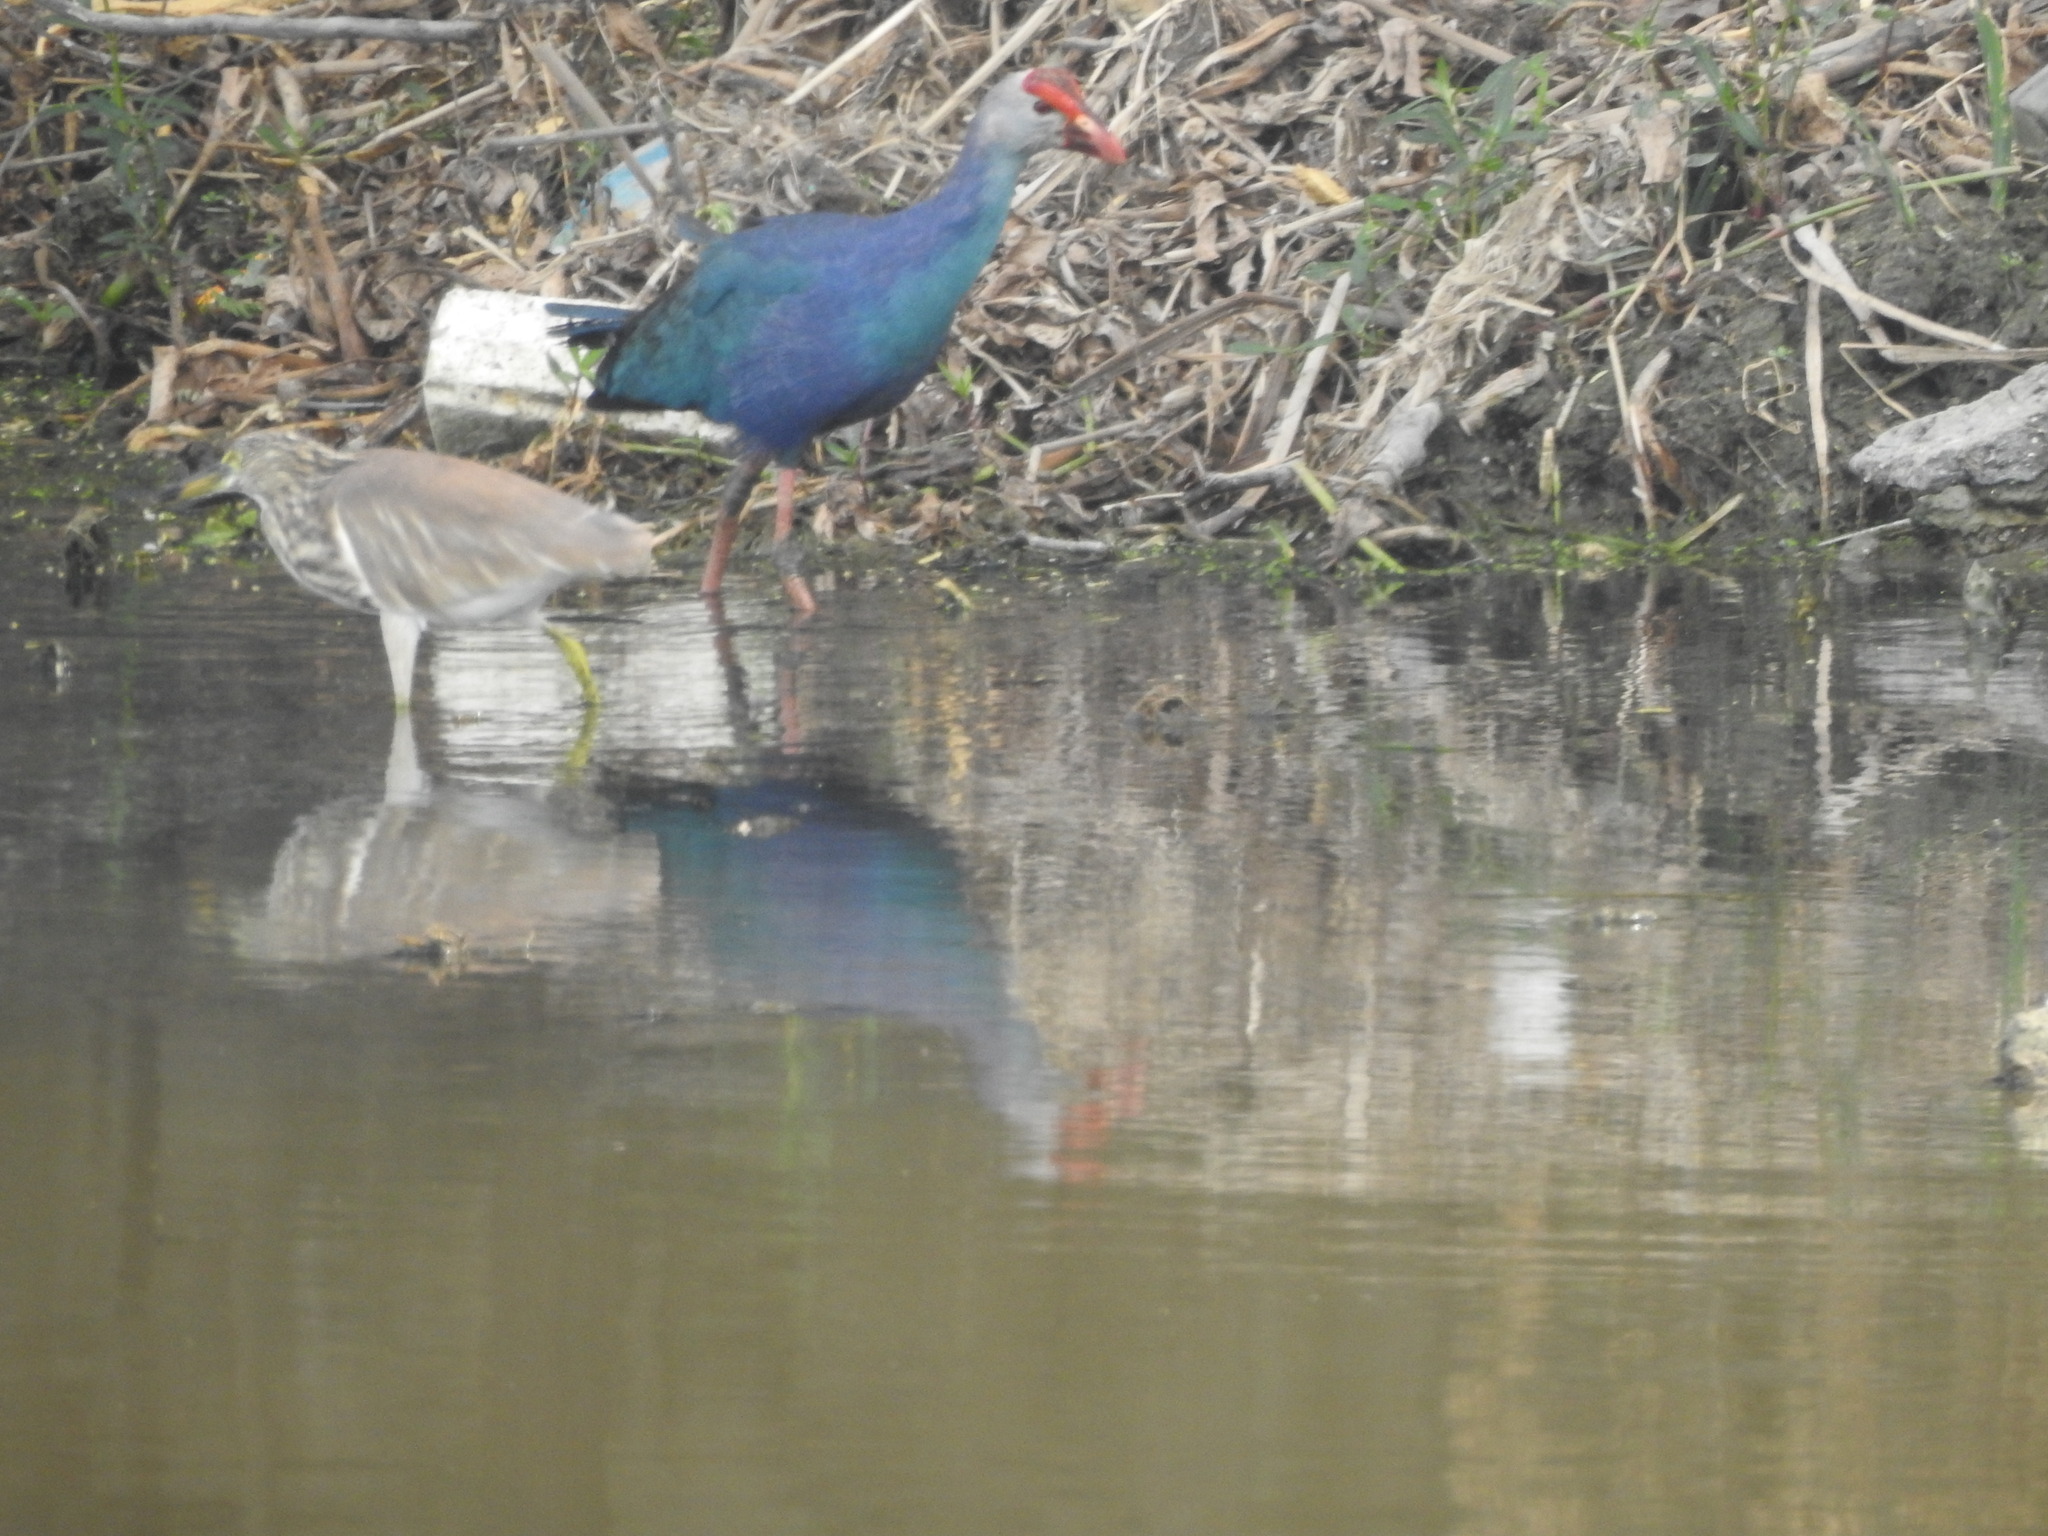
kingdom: Animalia
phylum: Chordata
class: Aves
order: Gruiformes
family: Rallidae
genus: Porphyrio
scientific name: Porphyrio porphyrio
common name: Purple swamphen
